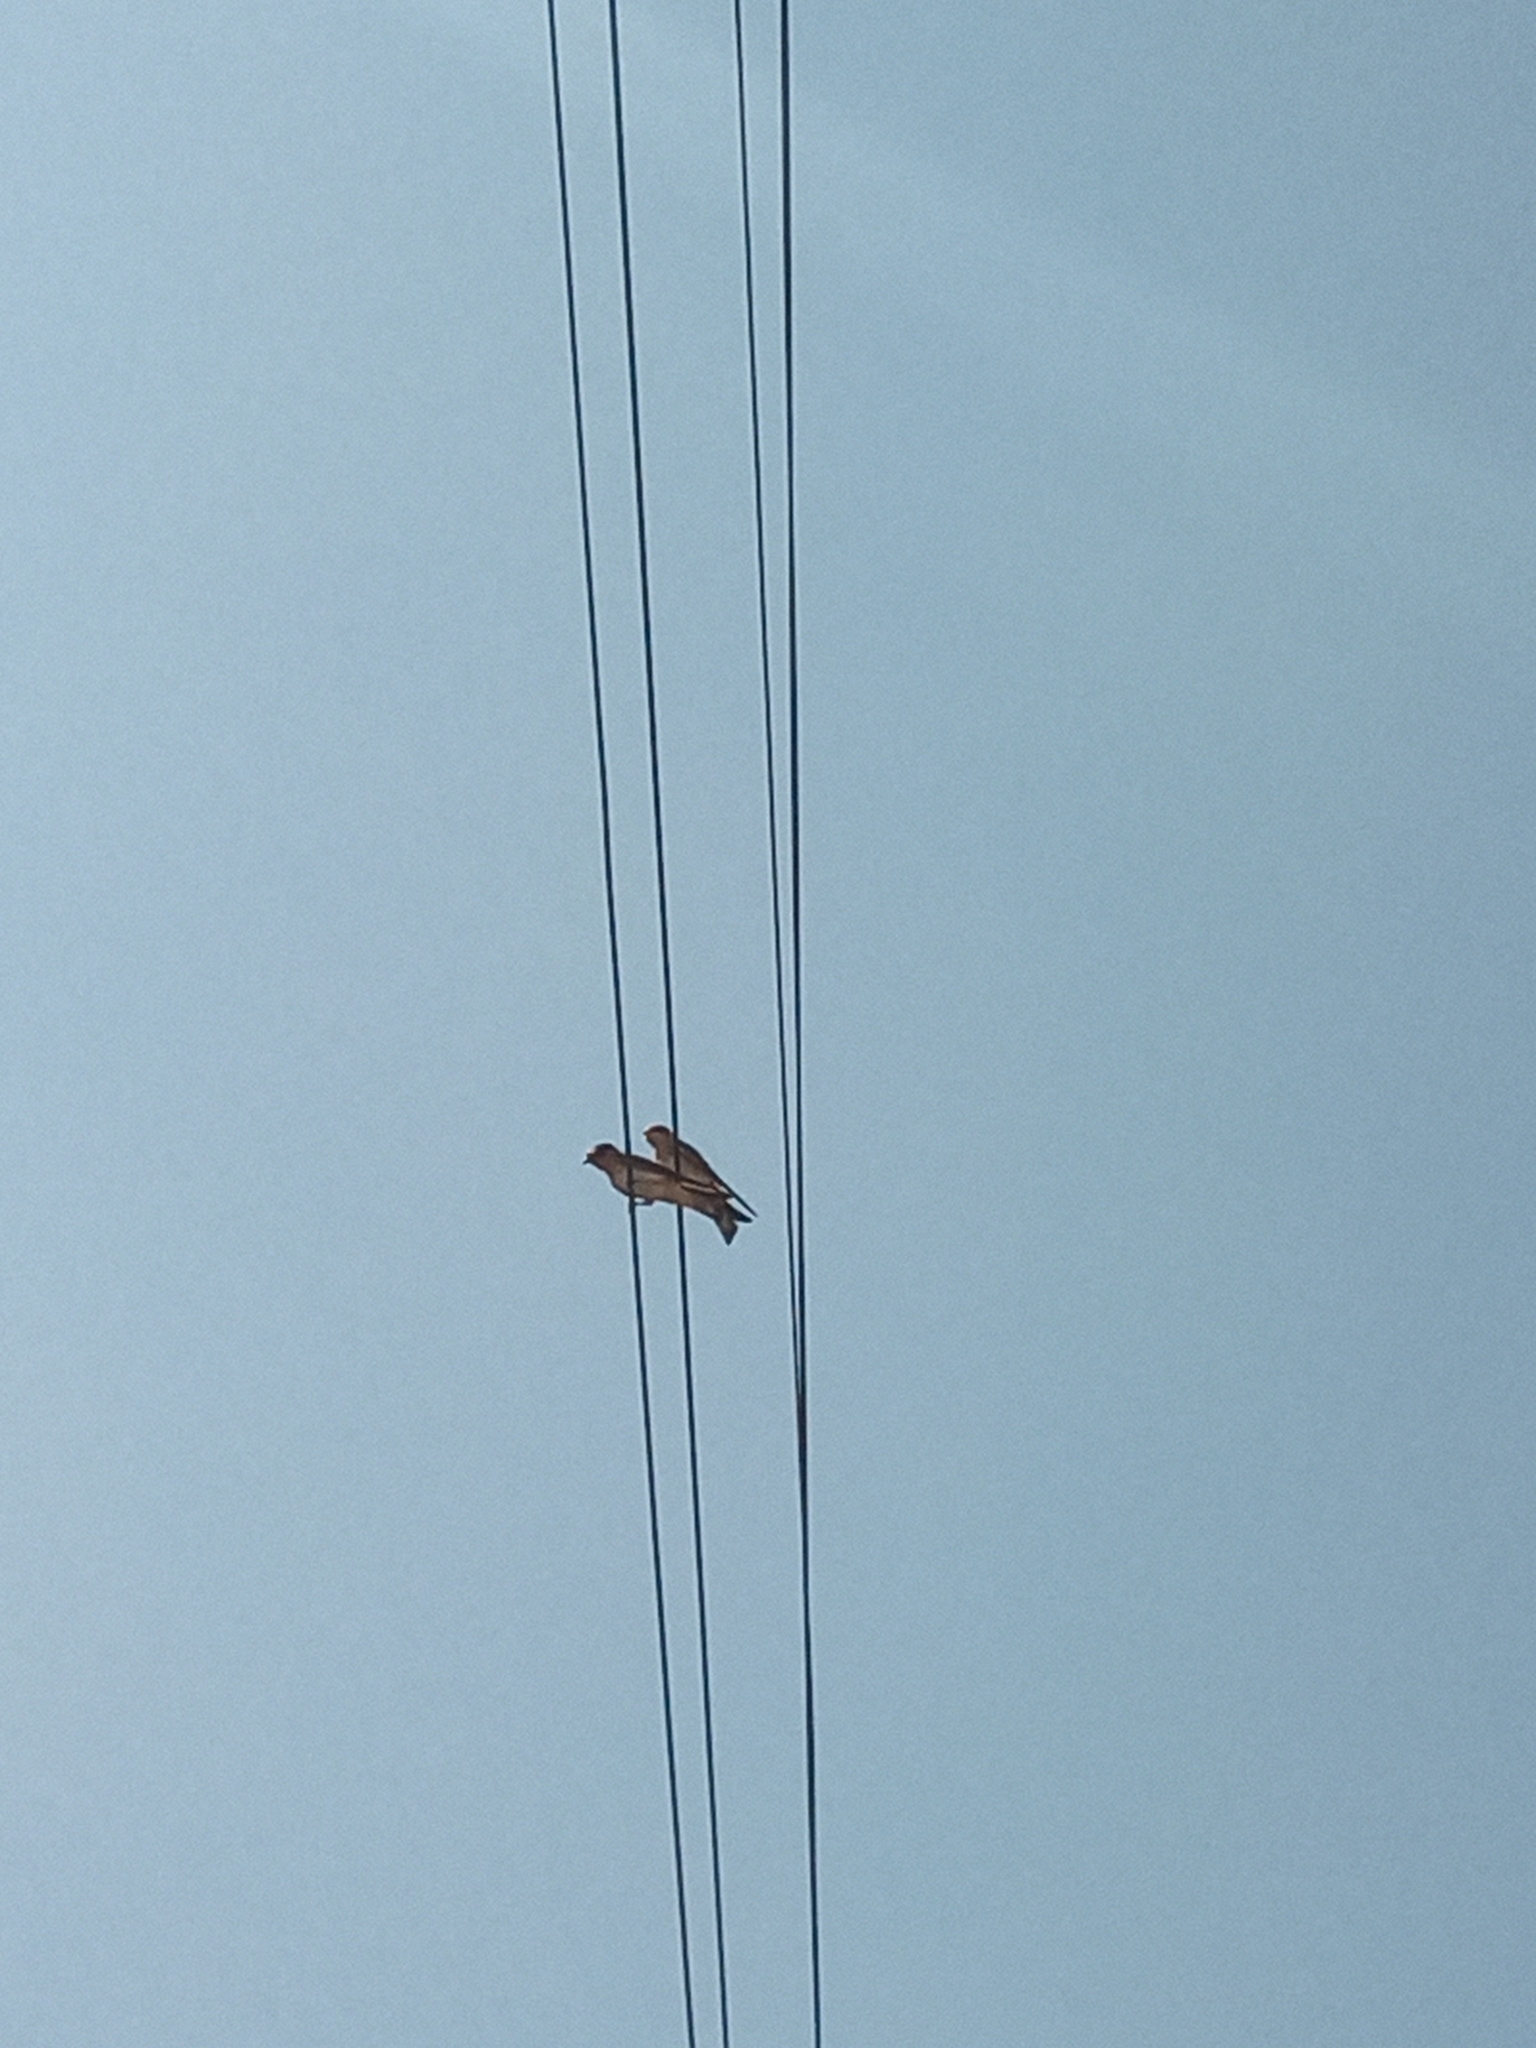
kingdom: Animalia
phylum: Chordata
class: Aves
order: Passeriformes
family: Hirundinidae
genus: Petrochelidon
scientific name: Petrochelidon fulva
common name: Cave swallow
